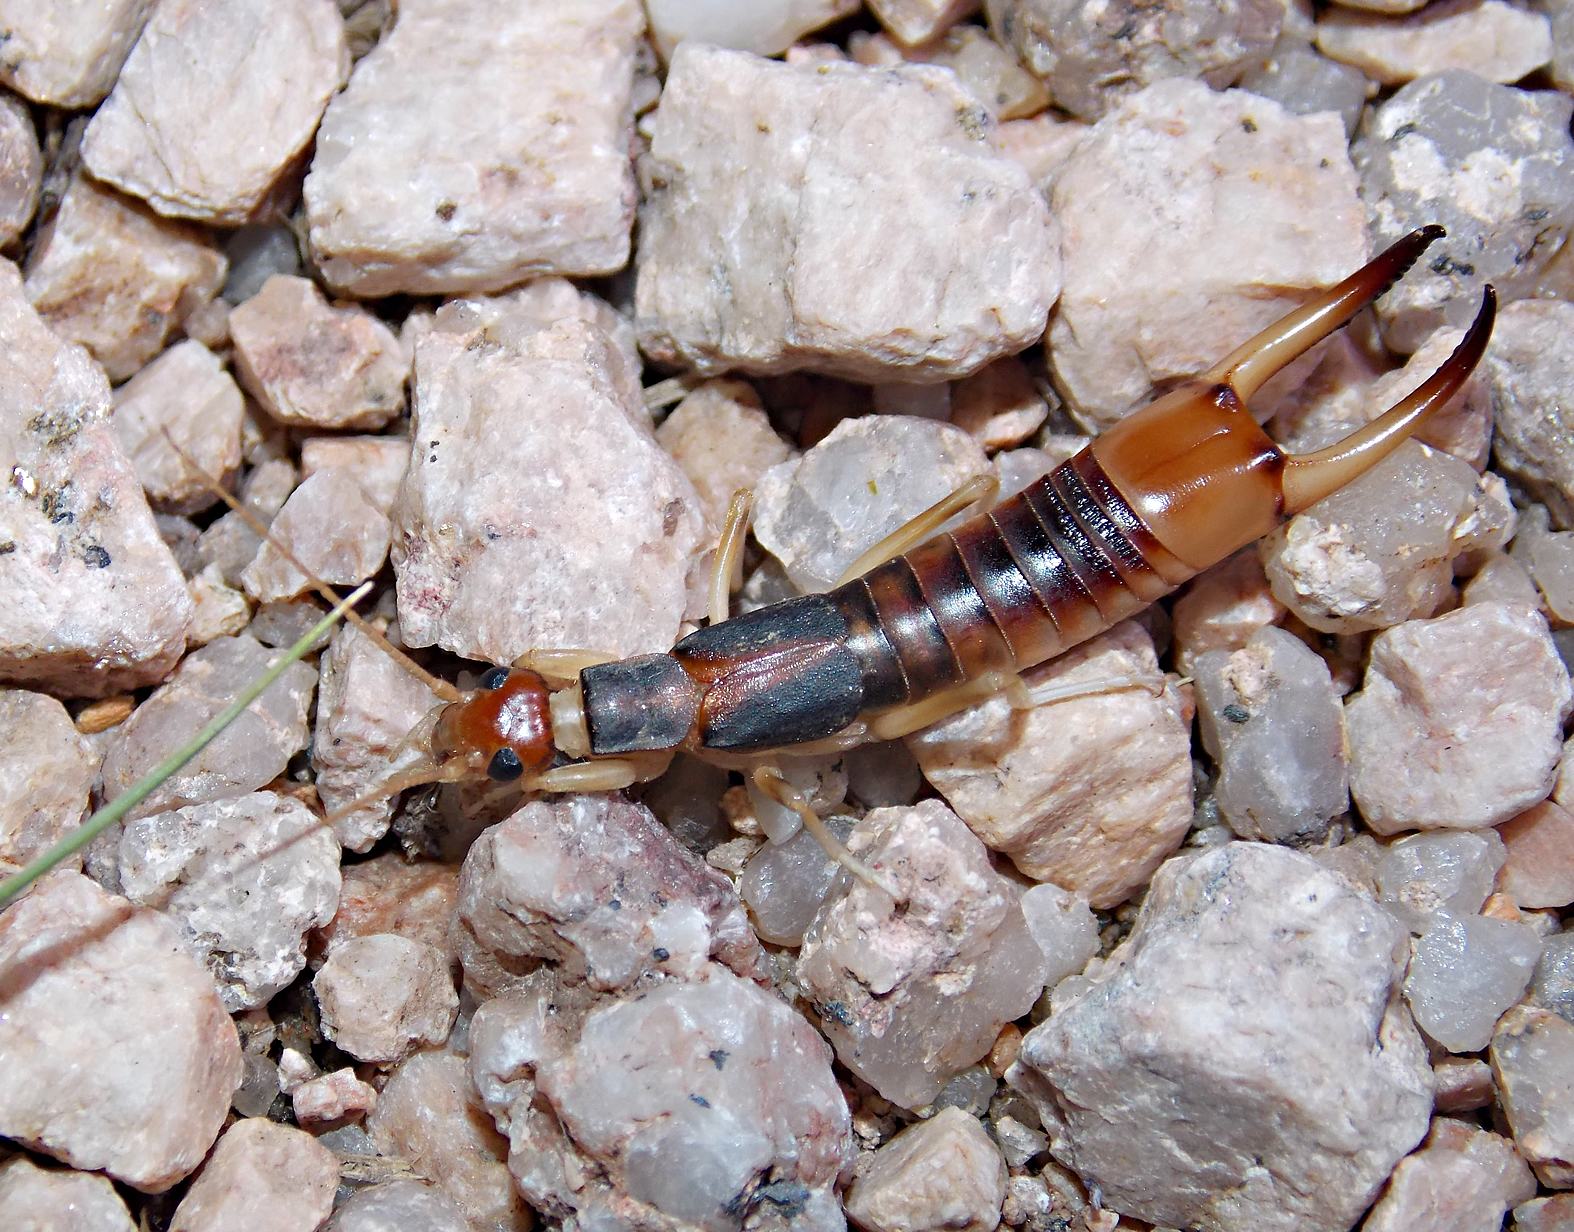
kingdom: Animalia
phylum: Arthropoda
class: Insecta
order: Dermaptera
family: Labiduridae
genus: Labidura
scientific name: Labidura riparia
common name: Striped earwig
